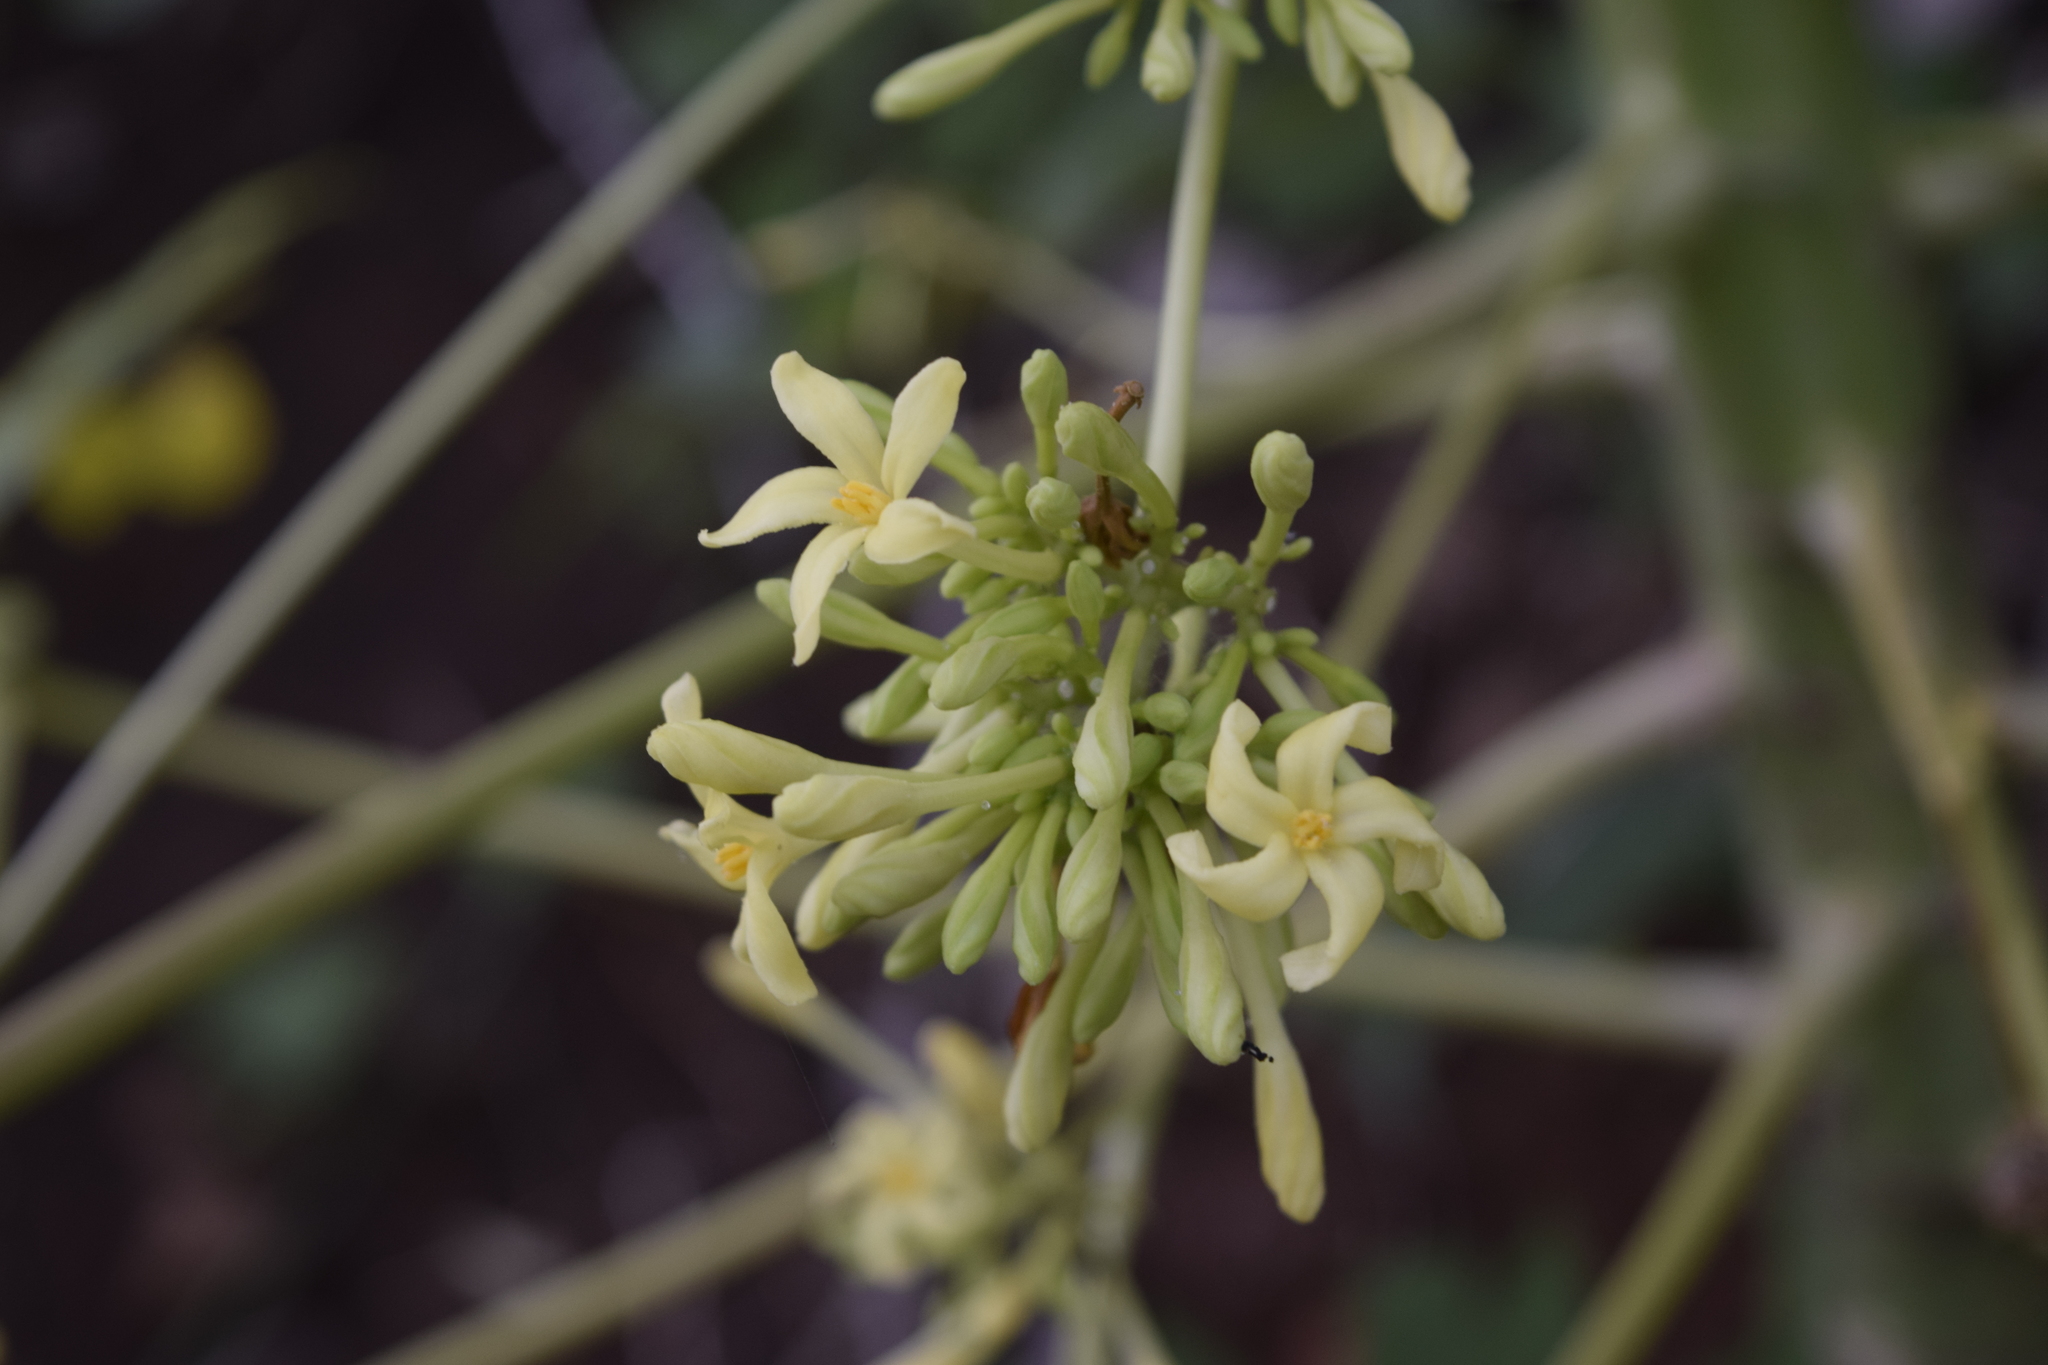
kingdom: Plantae
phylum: Tracheophyta
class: Magnoliopsida
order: Brassicales
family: Caricaceae
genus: Carica
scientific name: Carica papaya
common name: Papaya
